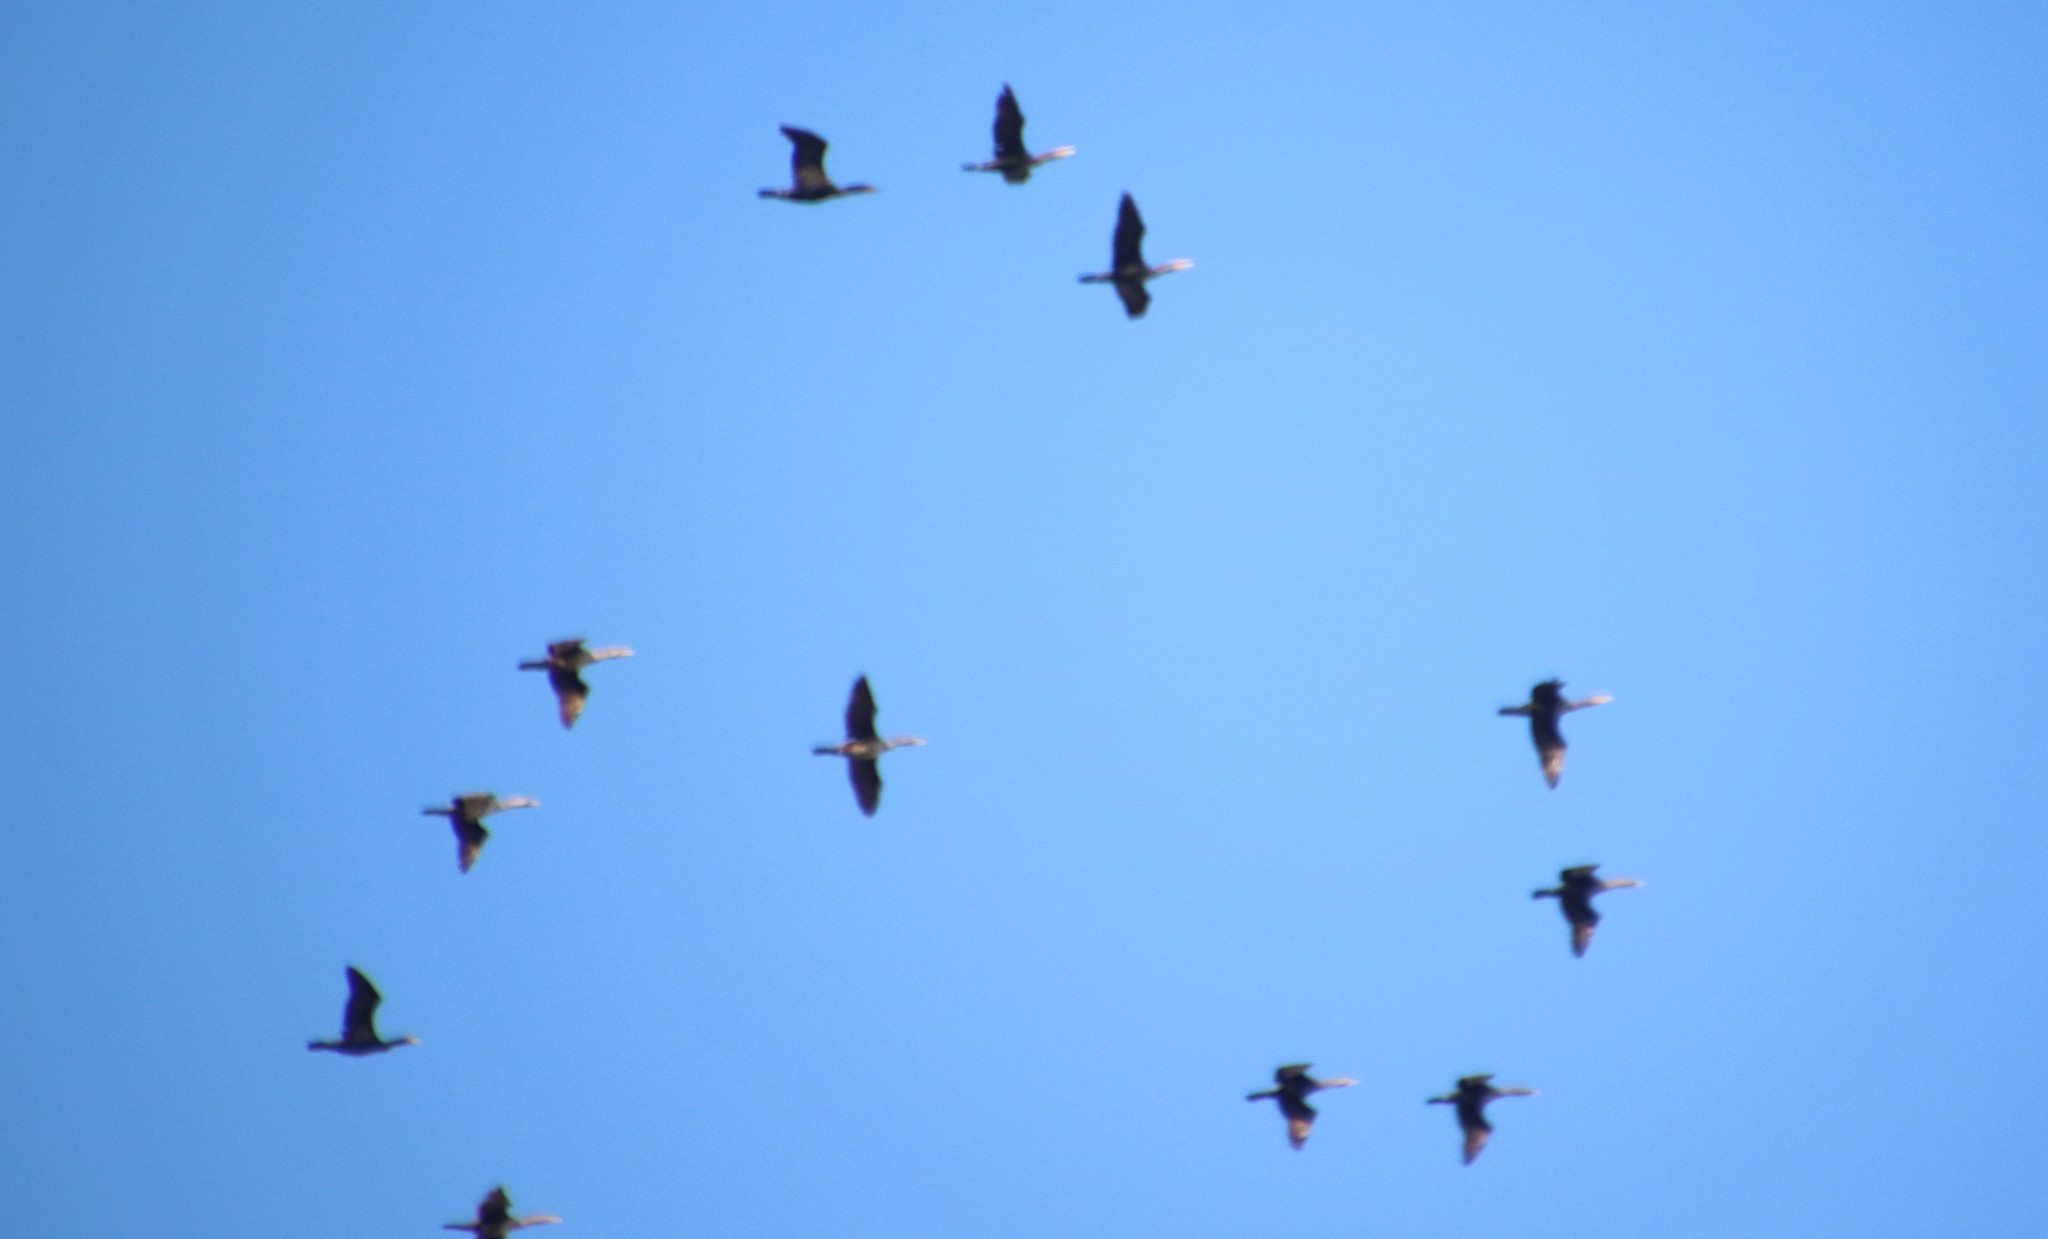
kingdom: Animalia
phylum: Chordata
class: Aves
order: Suliformes
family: Phalacrocoracidae
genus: Phalacrocorax
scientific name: Phalacrocorax auritus
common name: Double-crested cormorant
